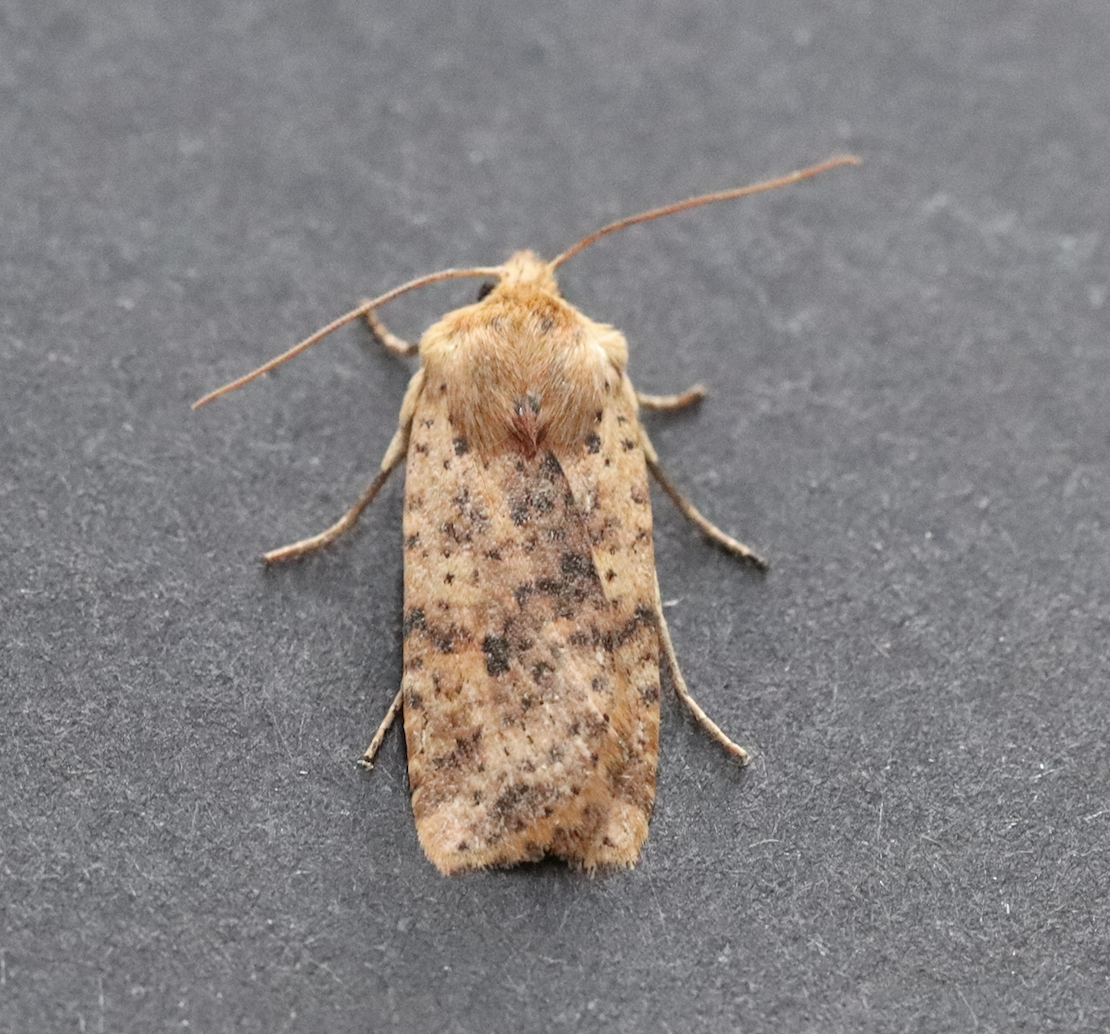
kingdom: Animalia
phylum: Arthropoda
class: Insecta
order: Lepidoptera
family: Noctuidae
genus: Conistra
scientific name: Conistra rubiginea
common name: Dotted chestnut
